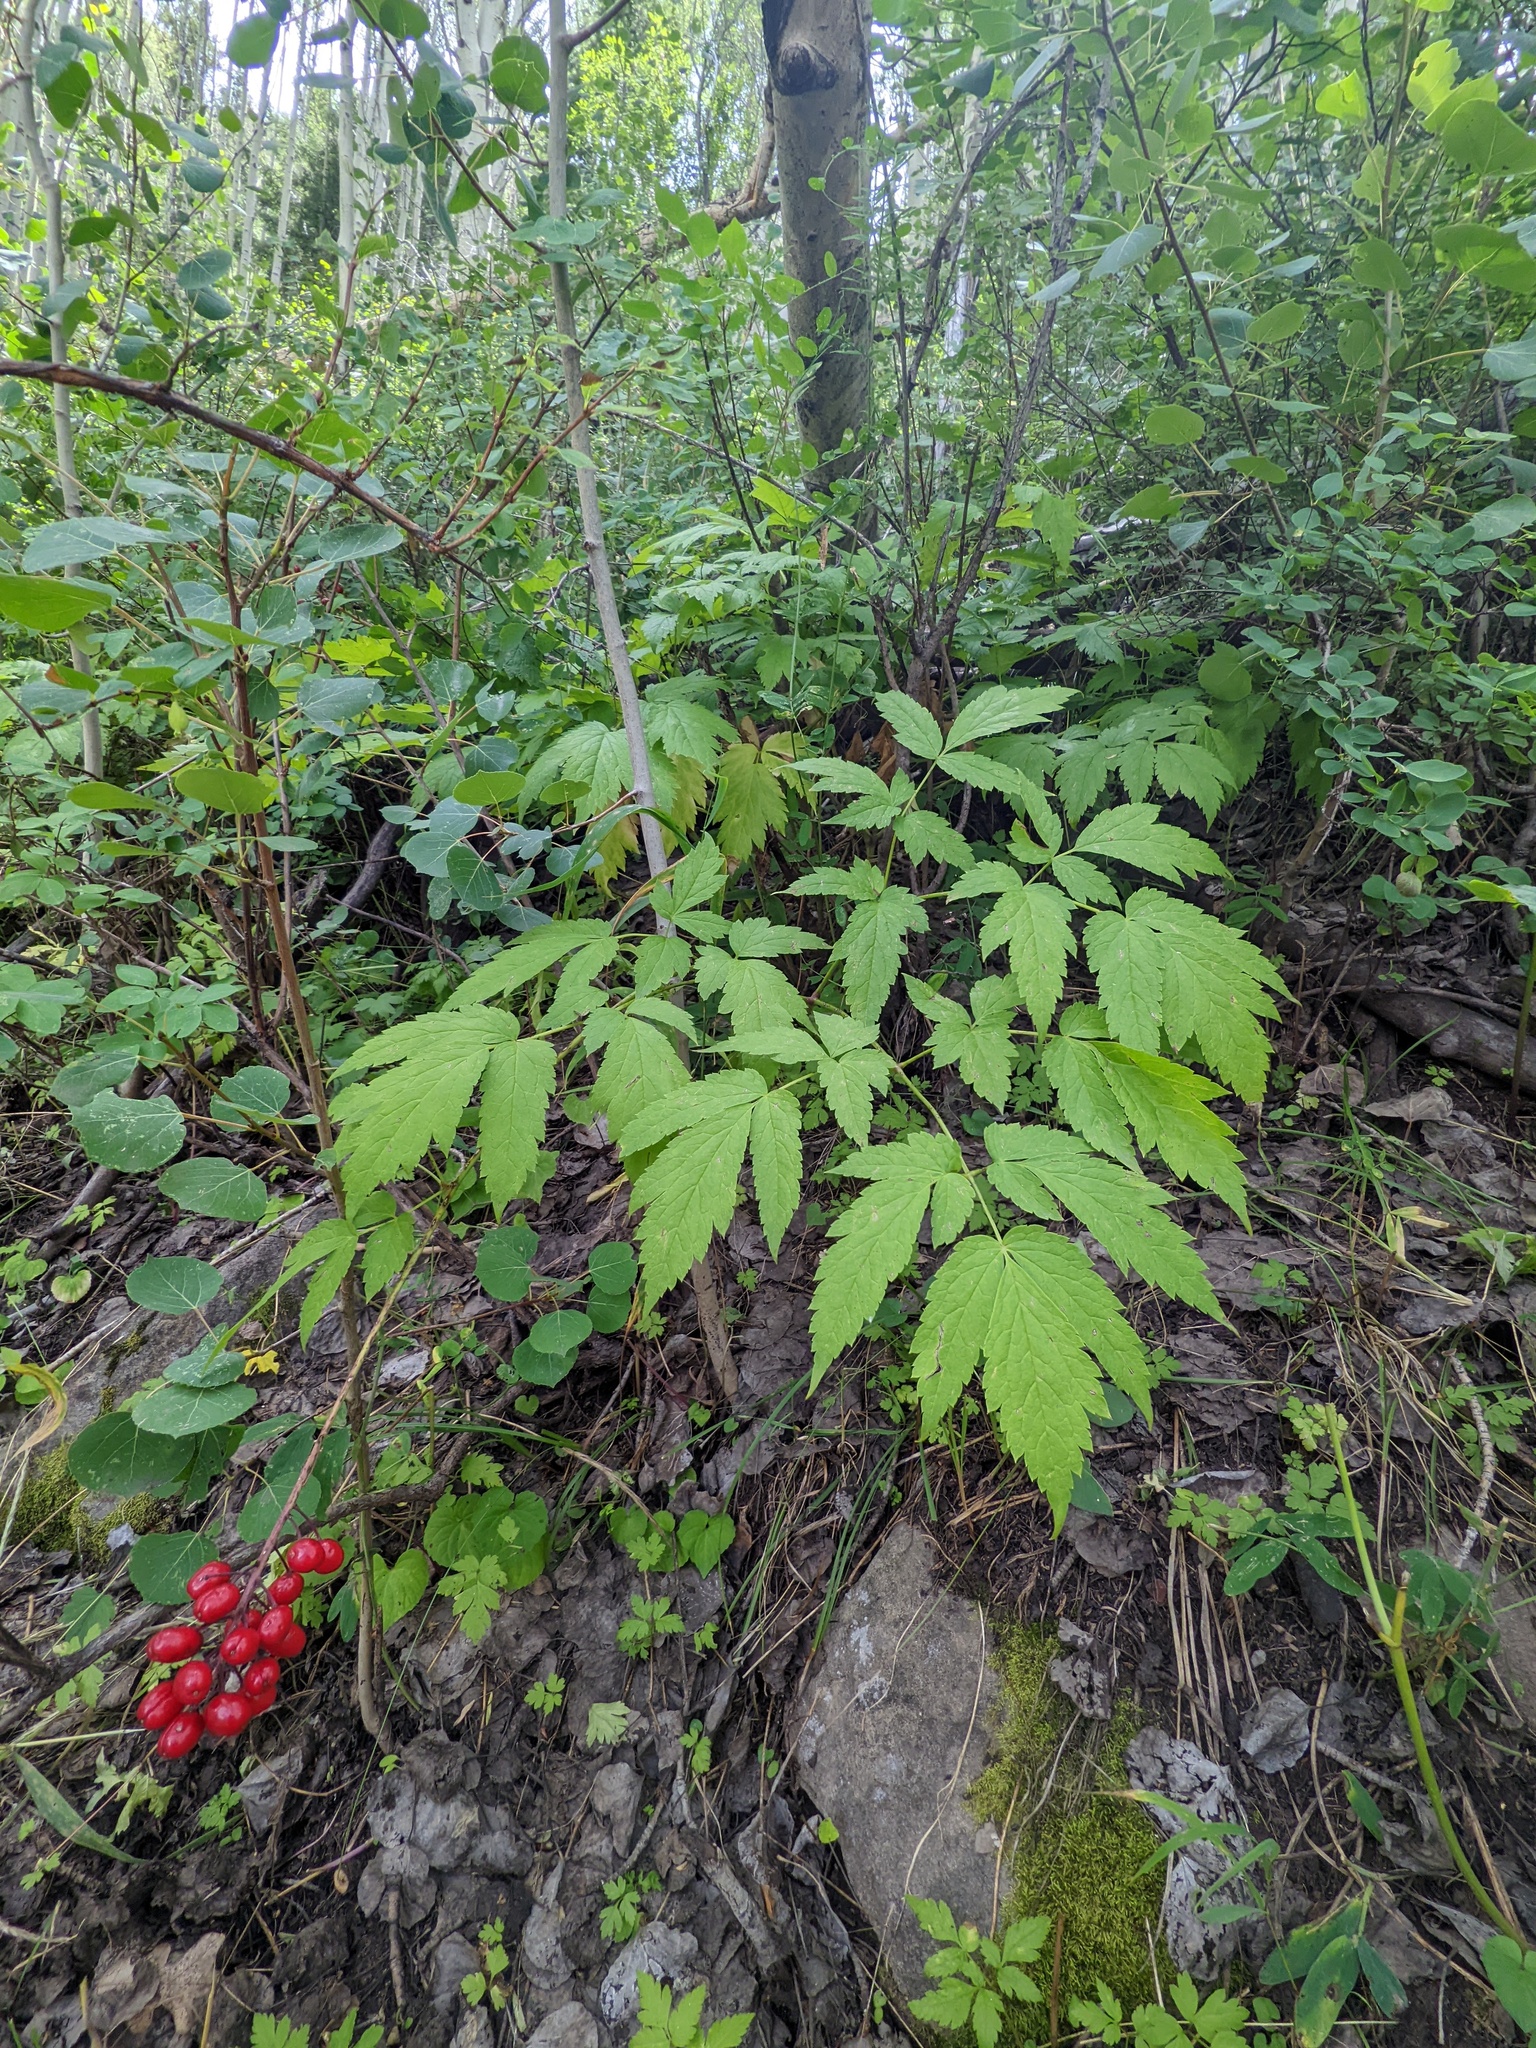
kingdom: Plantae
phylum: Tracheophyta
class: Magnoliopsida
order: Ranunculales
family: Ranunculaceae
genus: Actaea
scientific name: Actaea rubra
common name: Red baneberry
